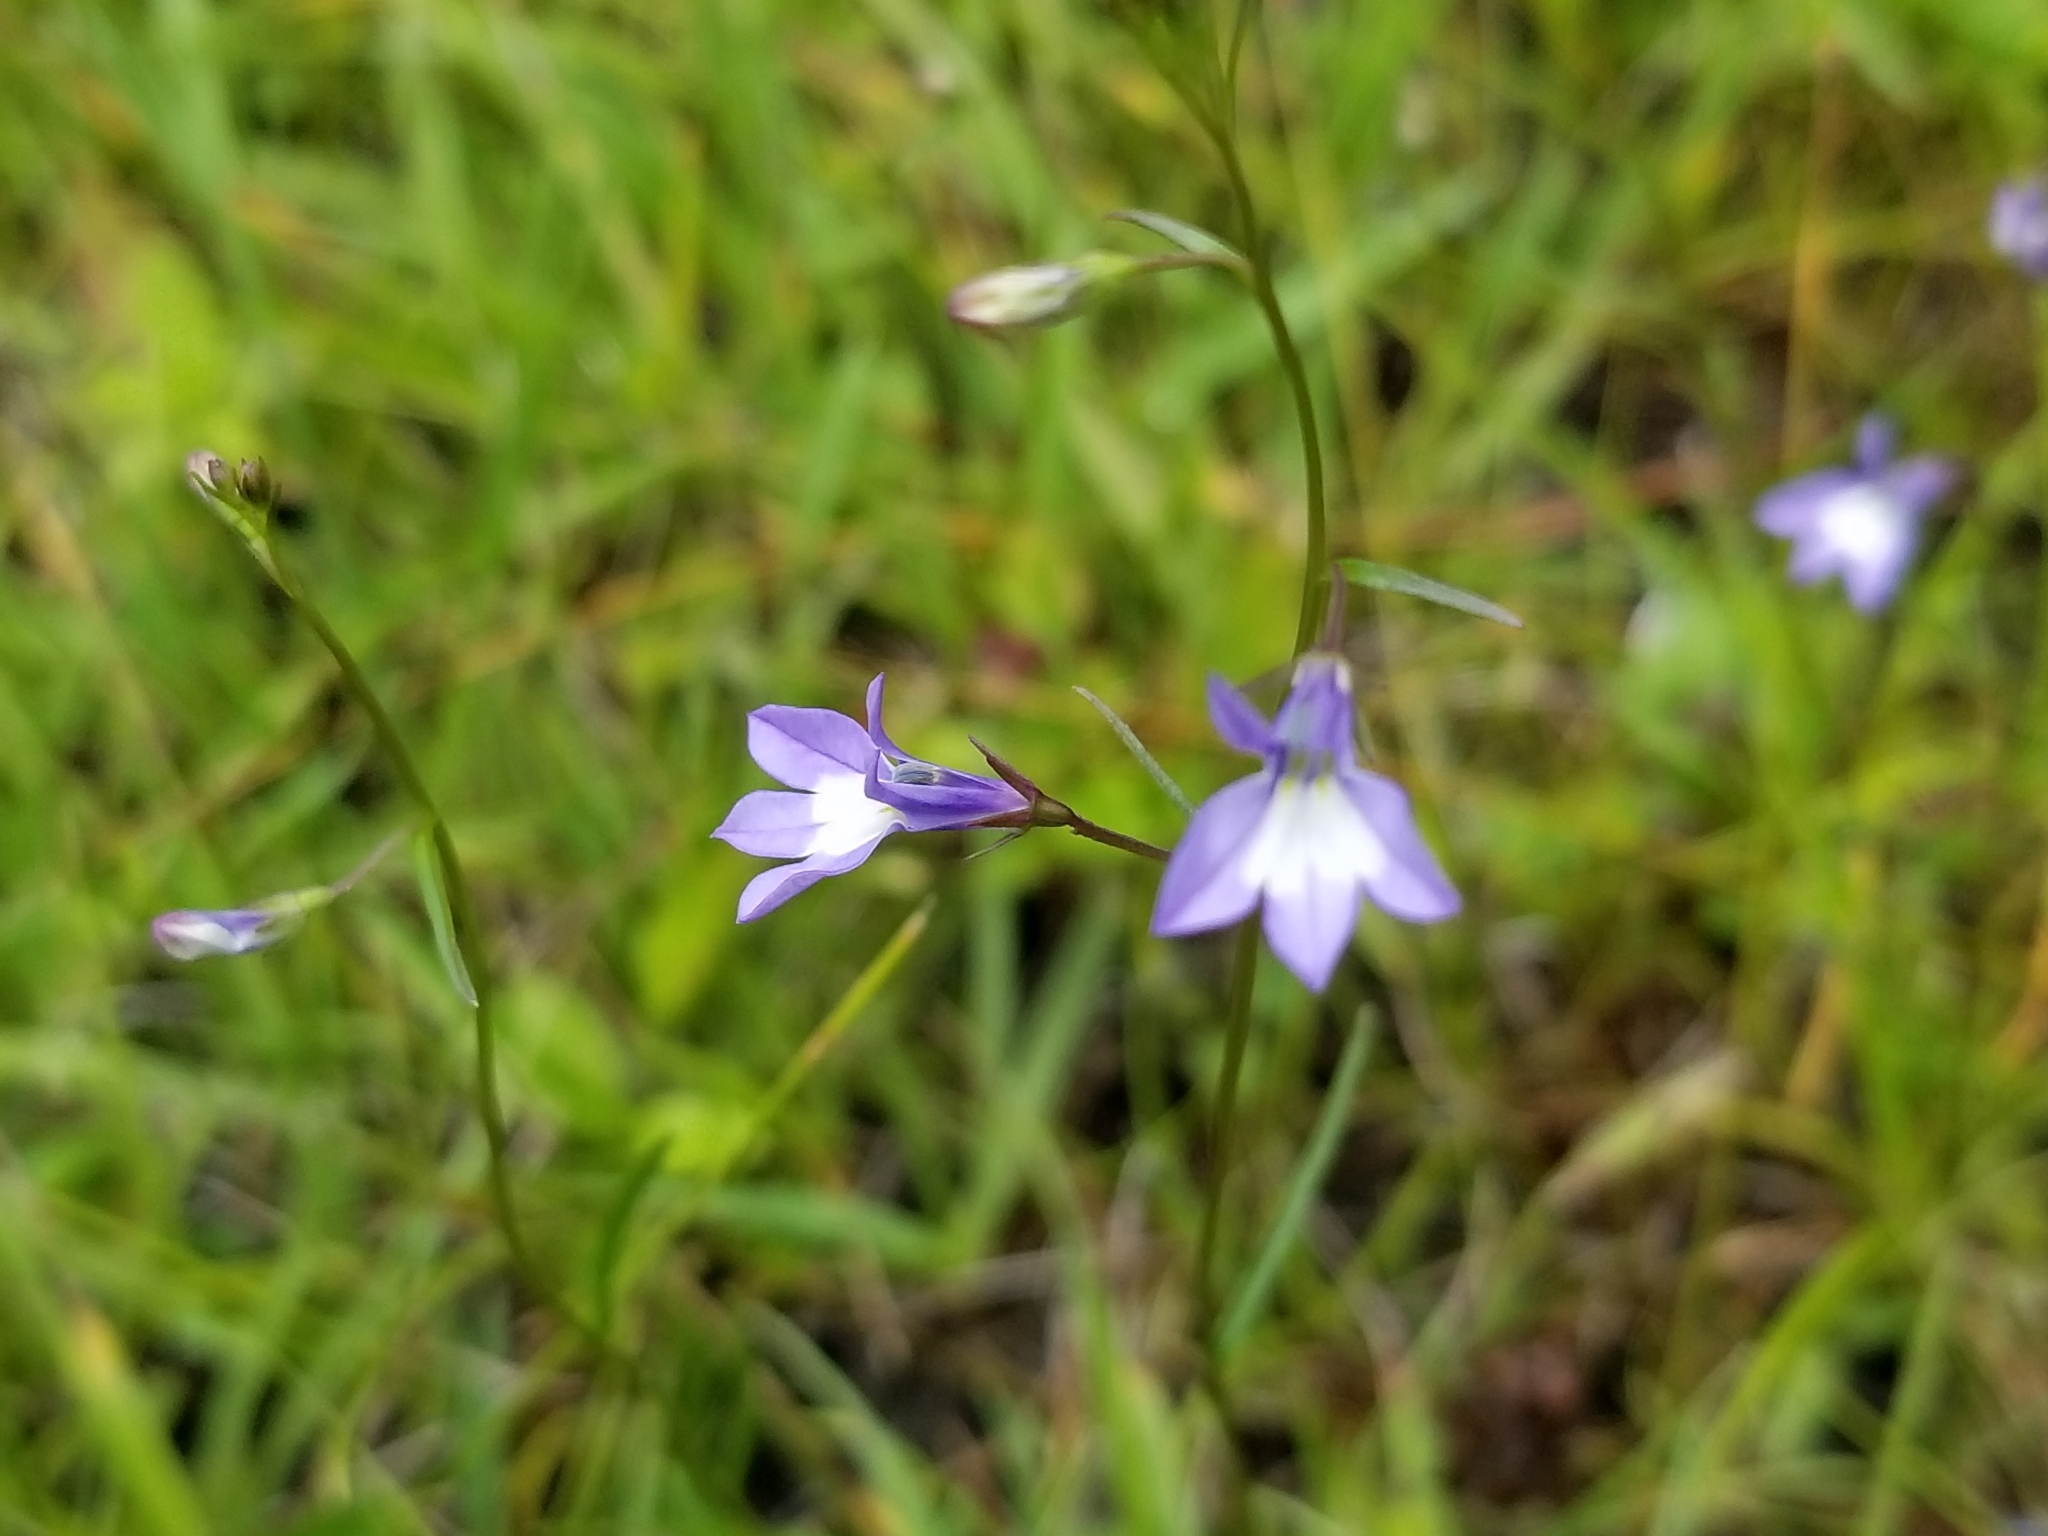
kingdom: Plantae
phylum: Tracheophyta
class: Magnoliopsida
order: Asterales
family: Campanulaceae
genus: Lobelia
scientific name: Lobelia kalmii
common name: Kalm's lobelia
